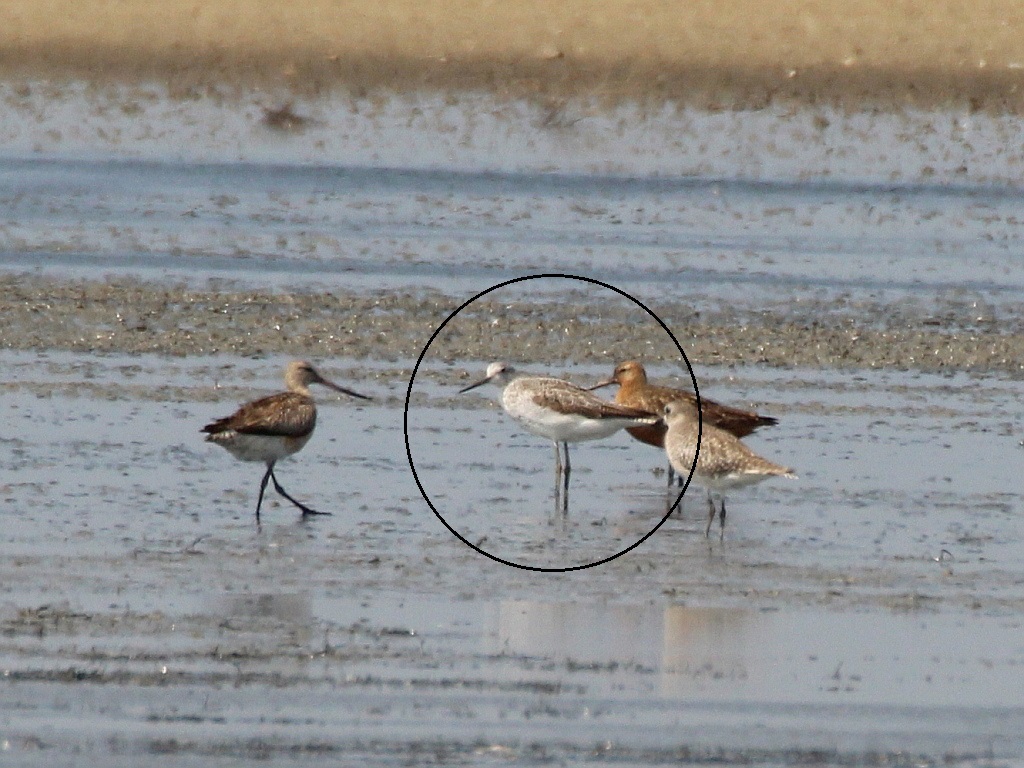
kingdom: Animalia
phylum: Chordata
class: Aves
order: Charadriiformes
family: Scolopacidae
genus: Tringa
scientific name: Tringa nebularia
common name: Common greenshank
